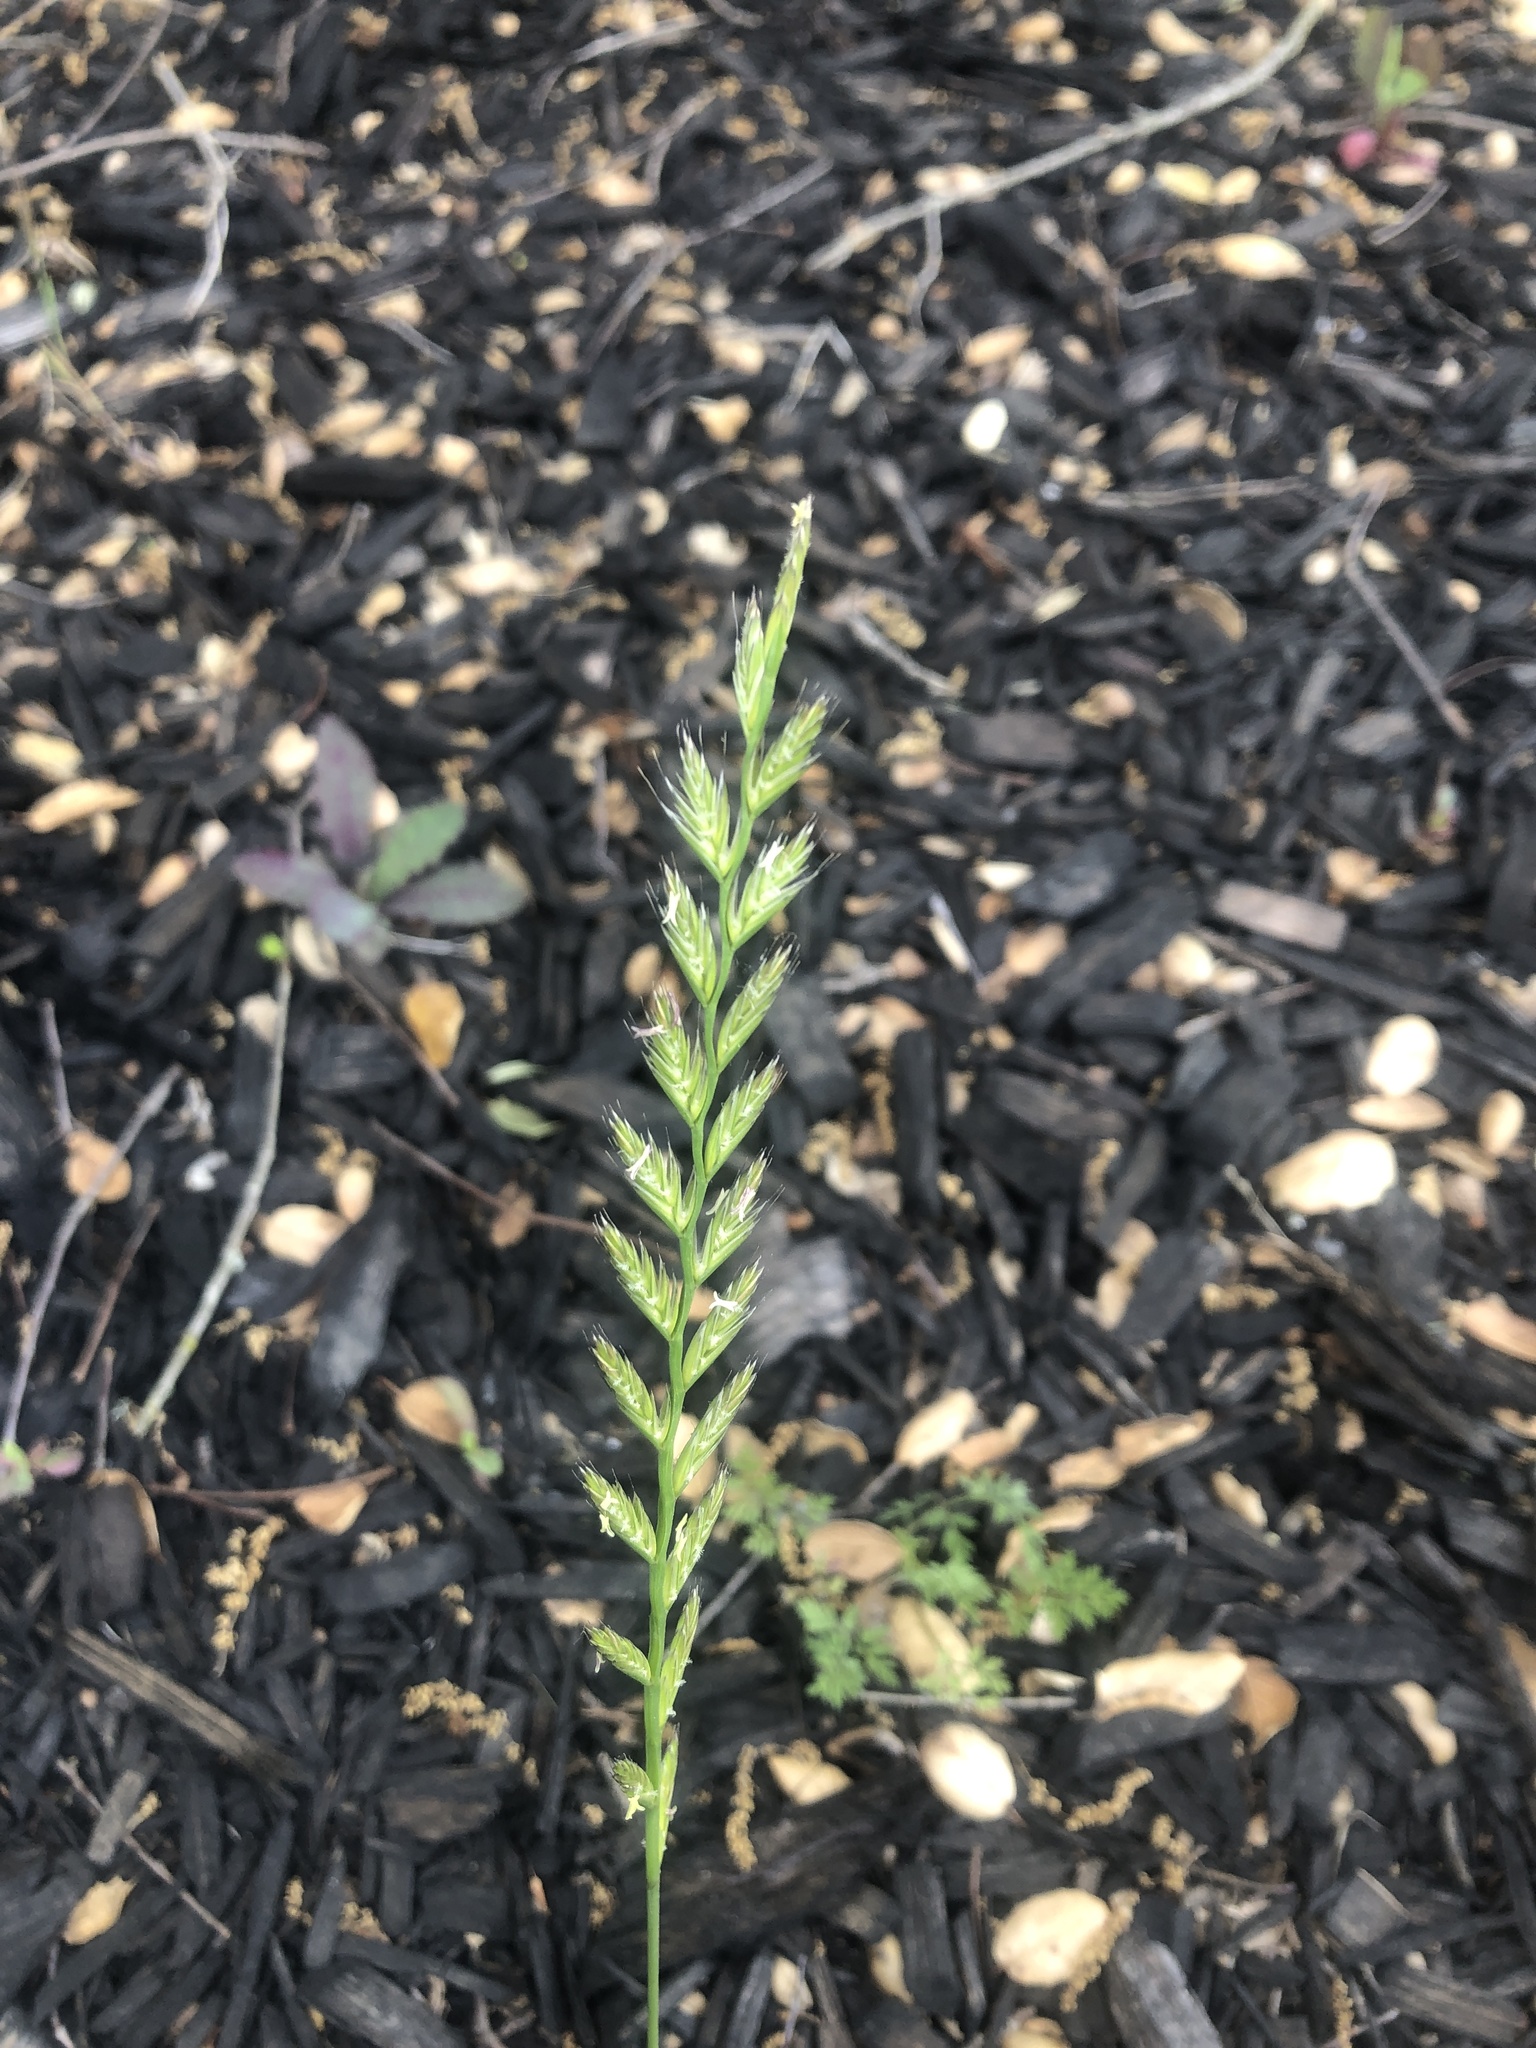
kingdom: Plantae
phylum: Tracheophyta
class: Liliopsida
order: Poales
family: Poaceae
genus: Lolium
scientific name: Lolium perenne
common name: Perennial ryegrass
